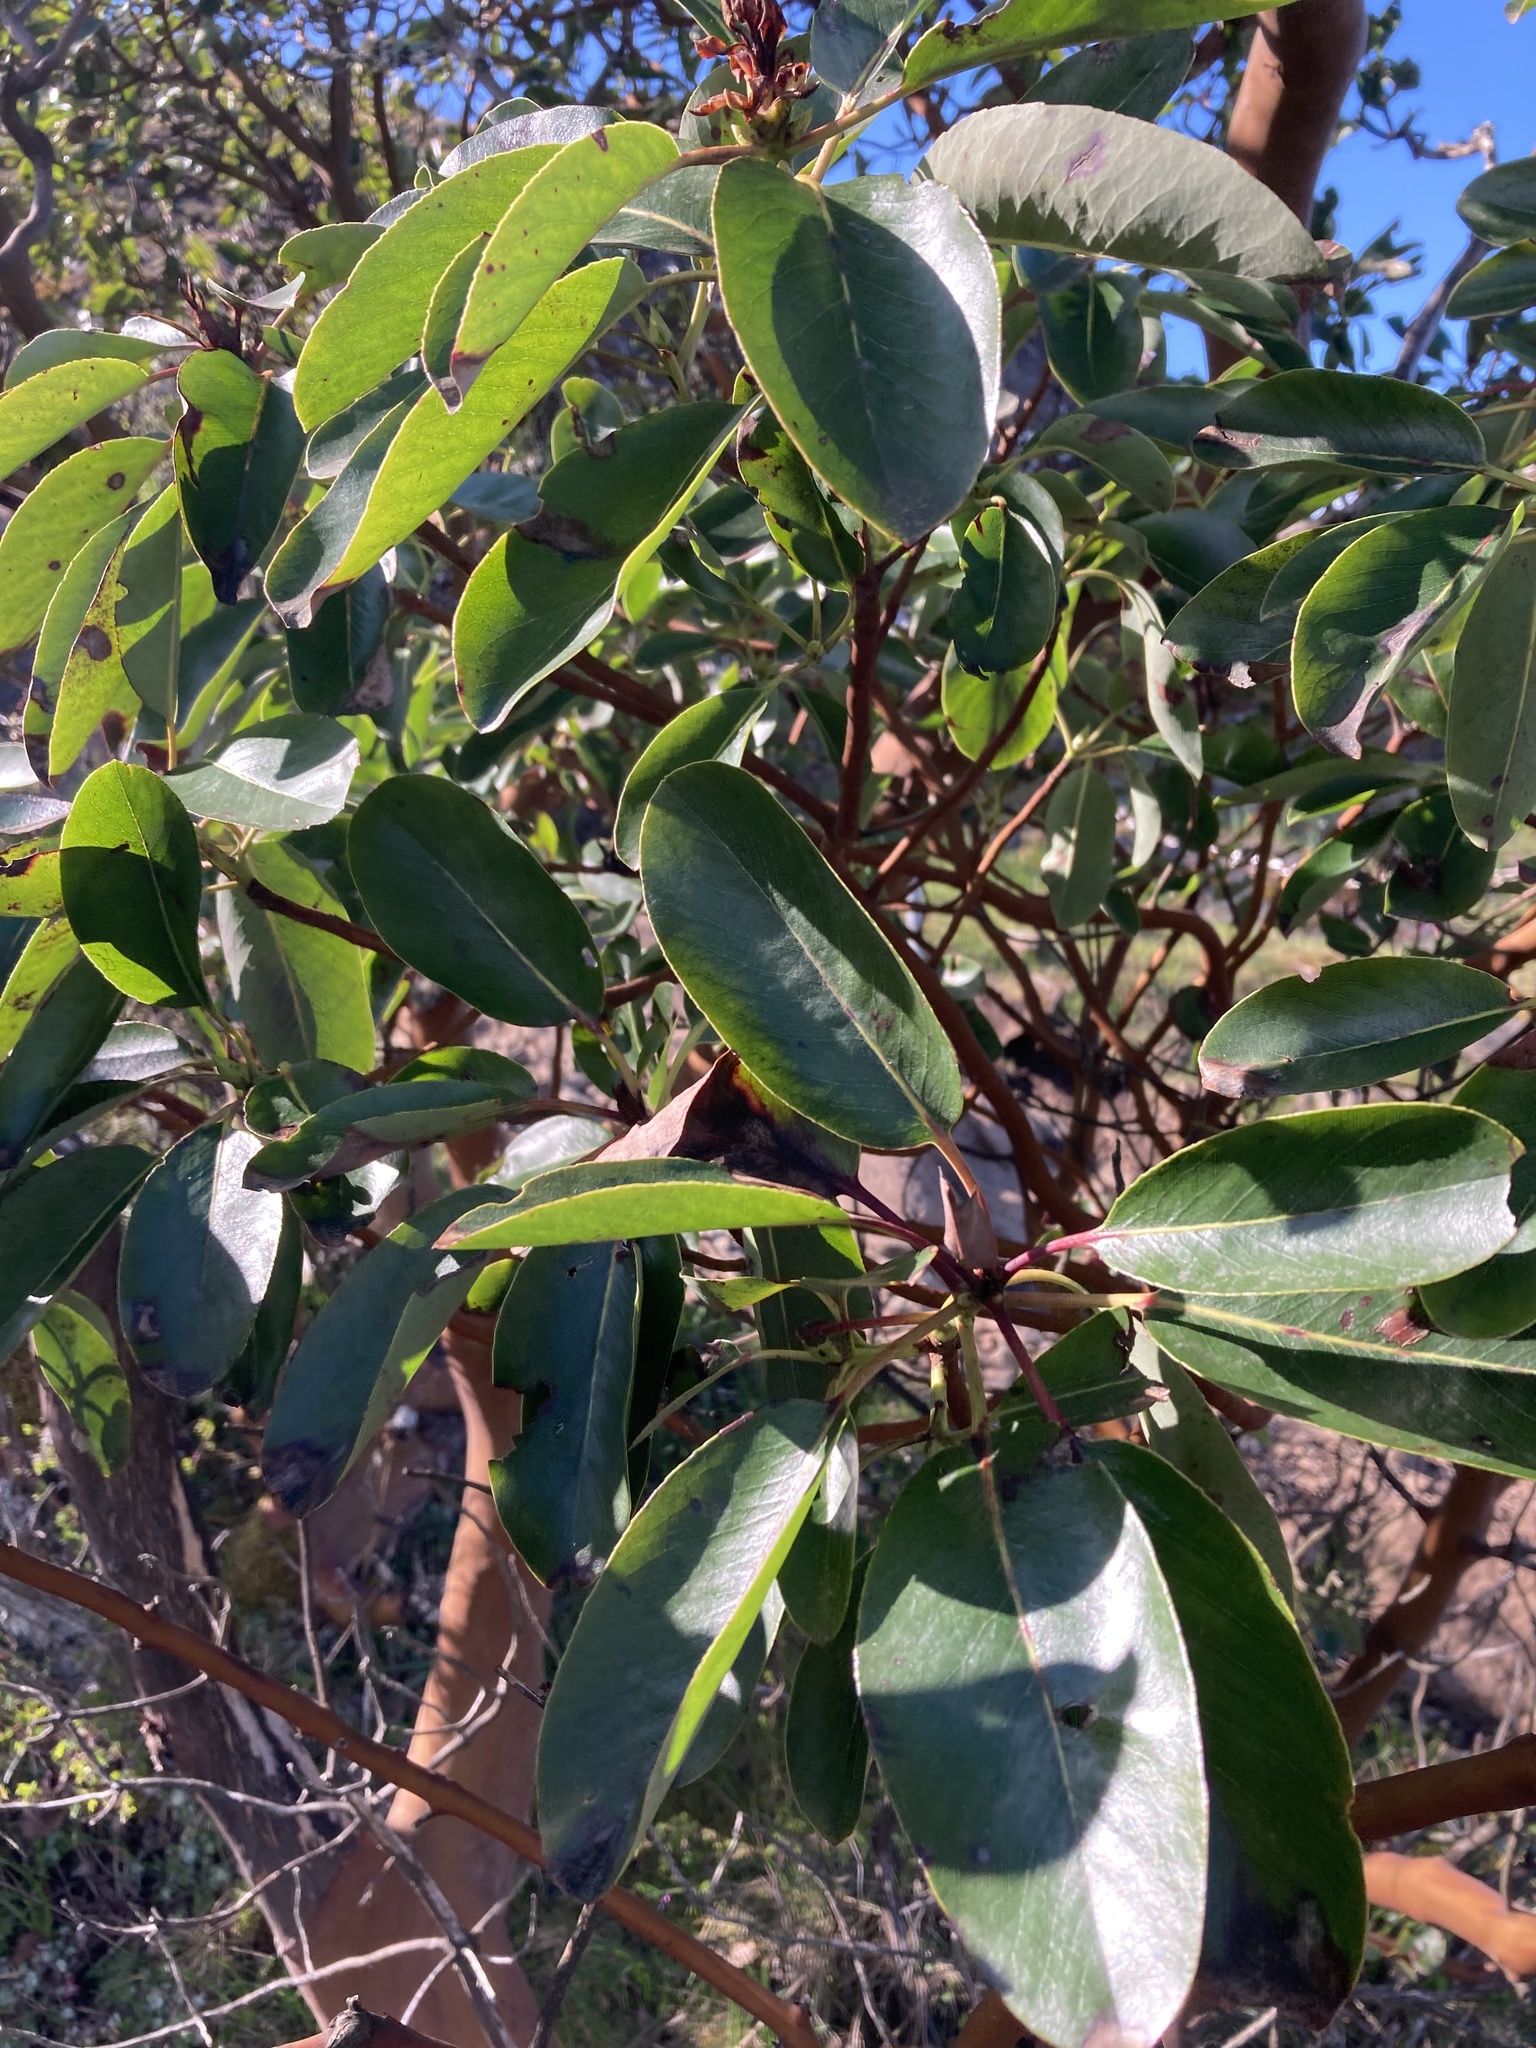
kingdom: Plantae
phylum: Tracheophyta
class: Magnoliopsida
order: Ericales
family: Ericaceae
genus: Arbutus
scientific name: Arbutus menziesii
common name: Pacific madrone
